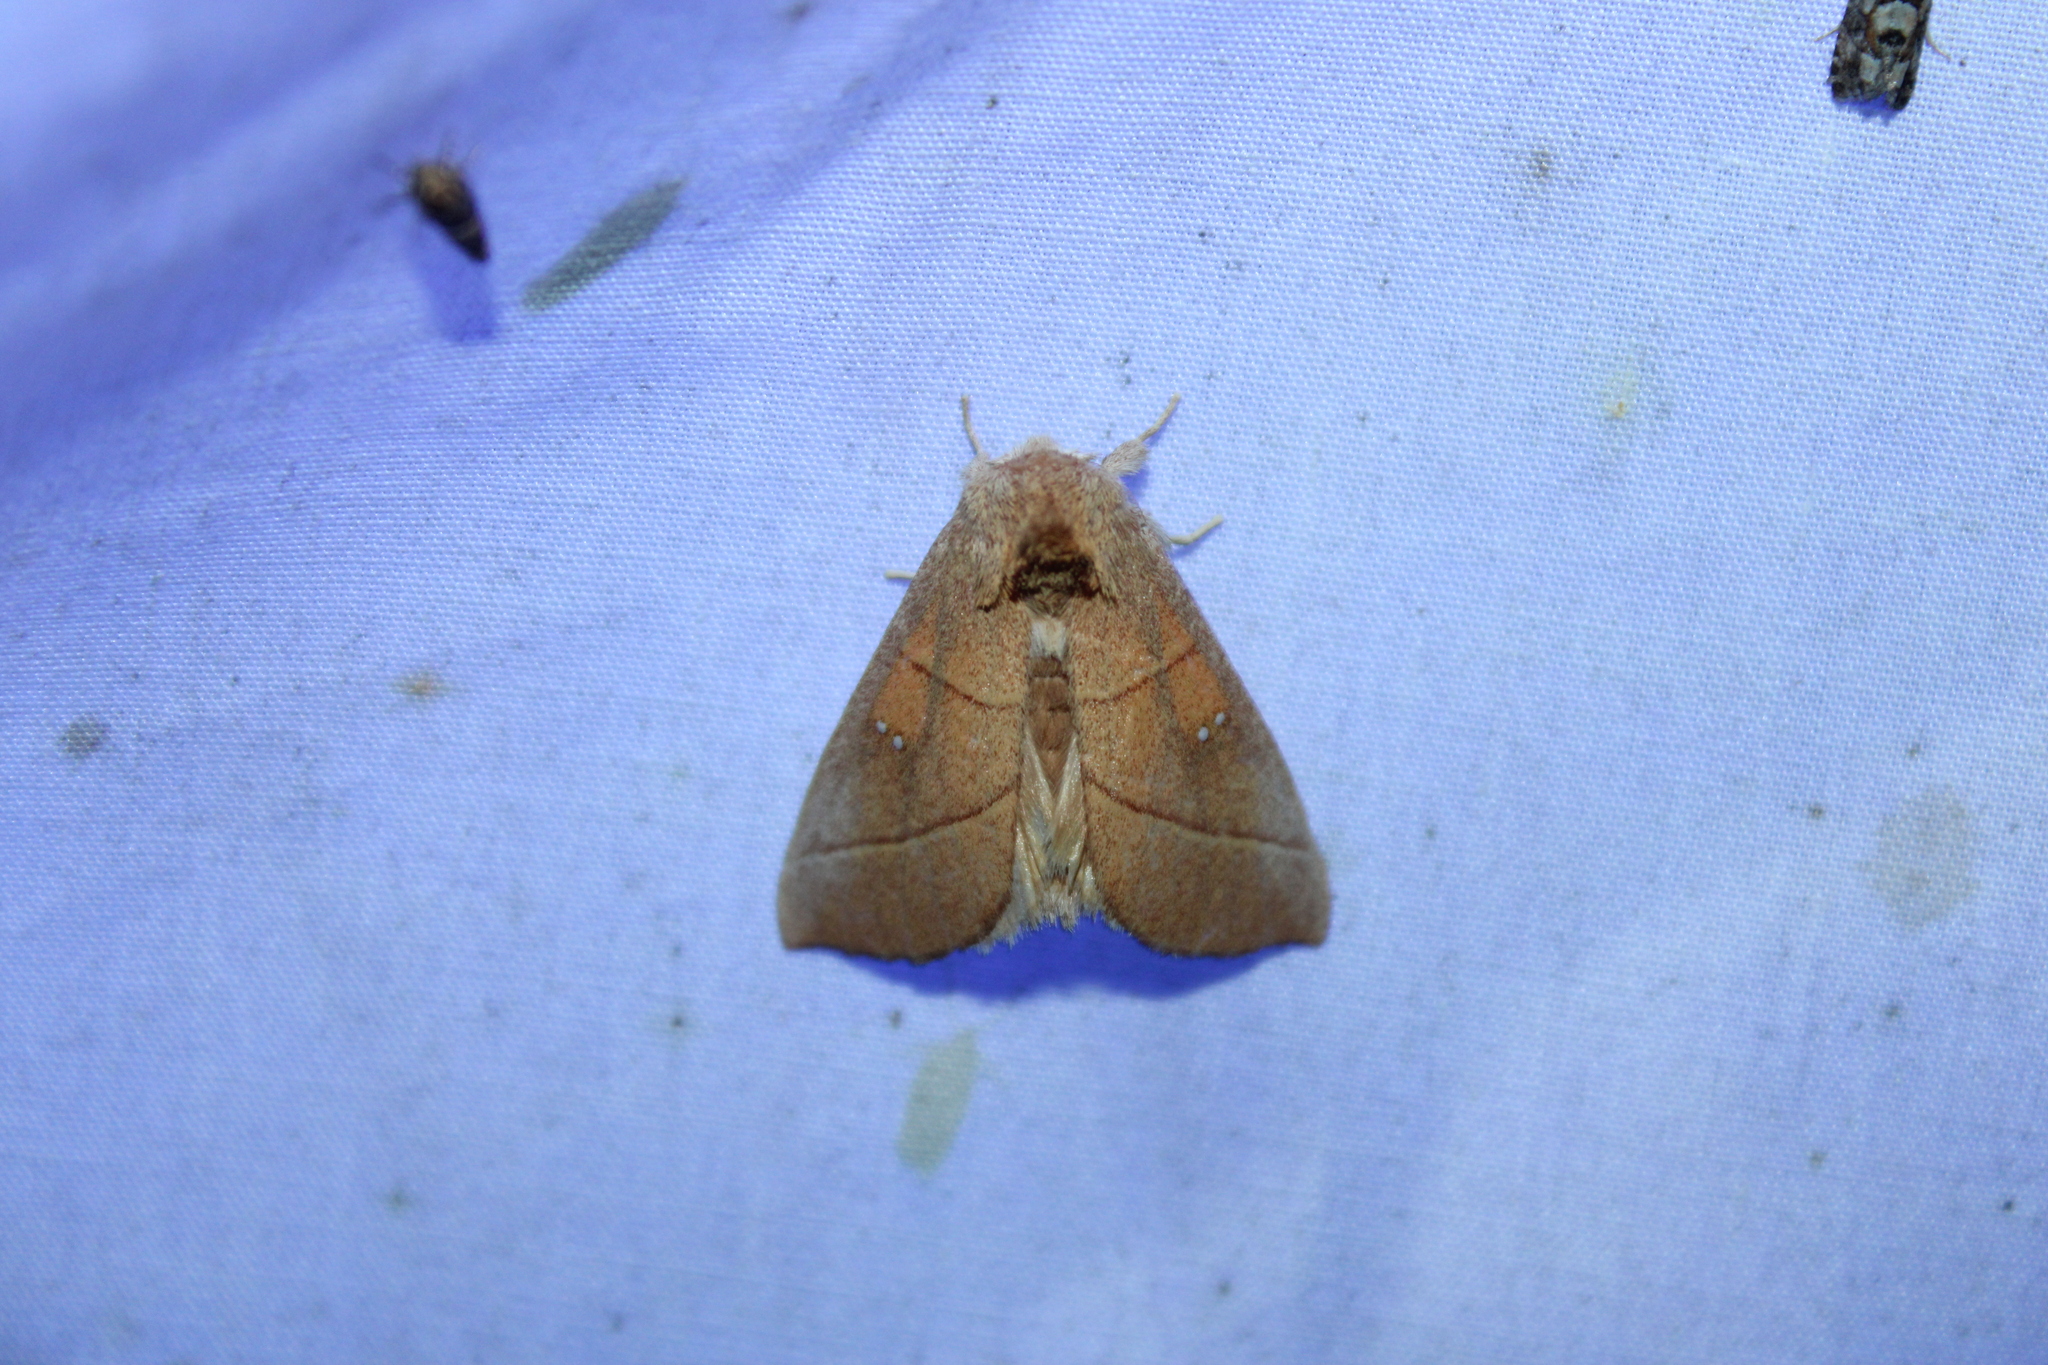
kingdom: Animalia
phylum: Arthropoda
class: Insecta
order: Lepidoptera
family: Notodontidae
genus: Nadata
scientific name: Nadata gibbosa
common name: White-dotted prominent
